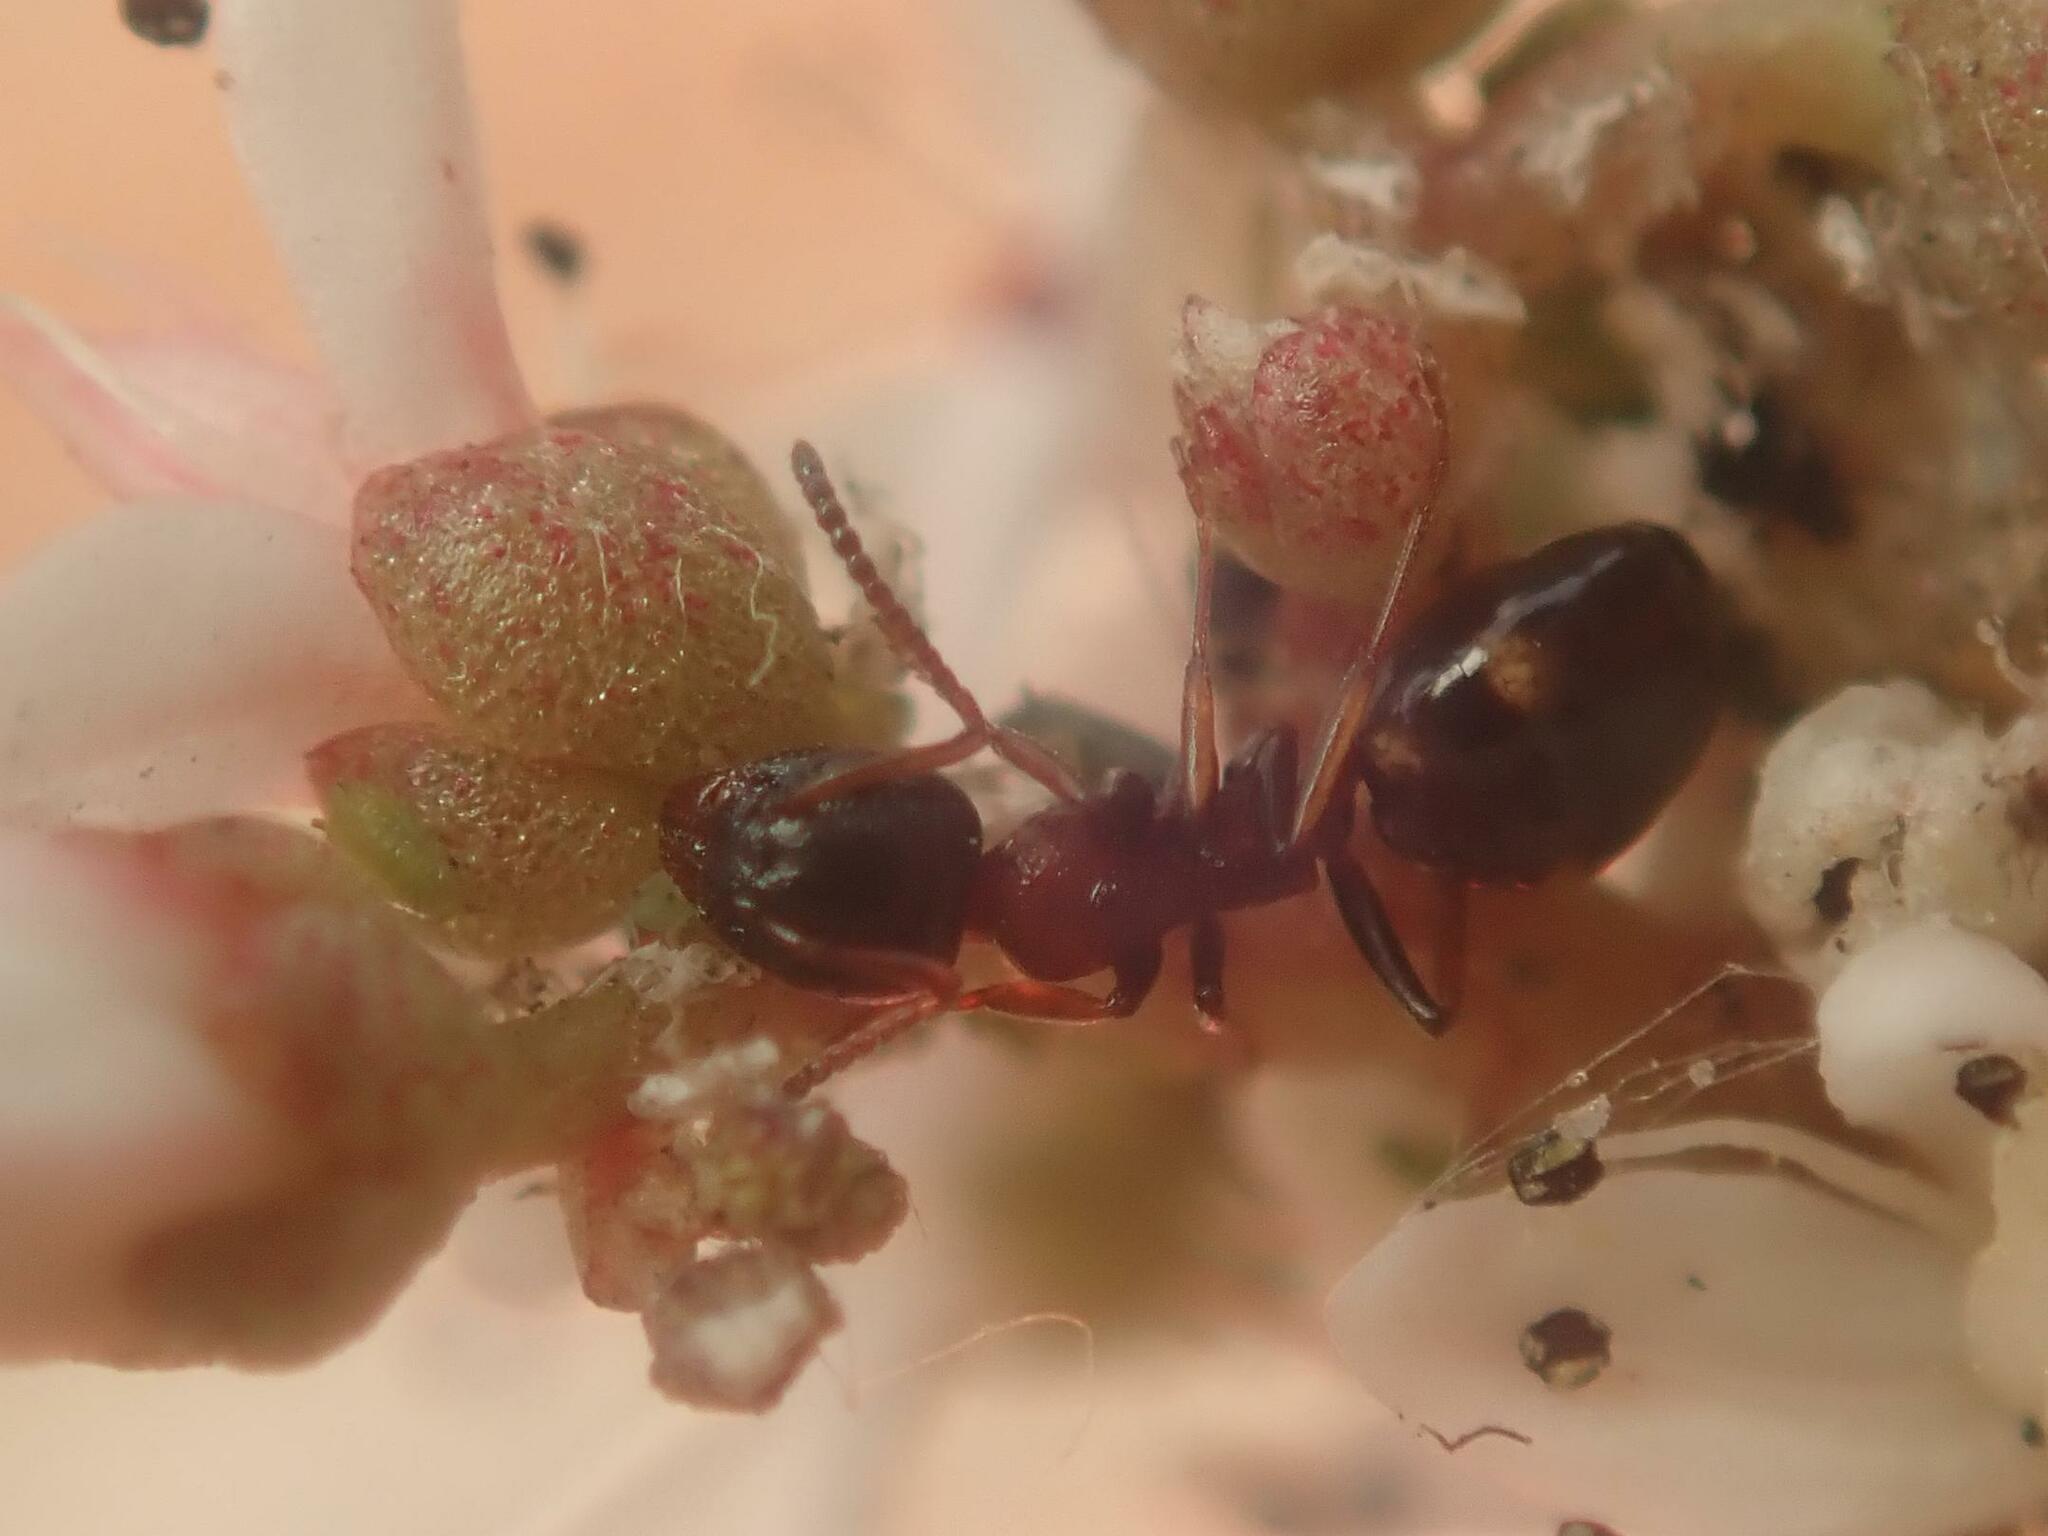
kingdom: Animalia
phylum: Arthropoda
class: Insecta
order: Hymenoptera
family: Formicidae
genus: Dolichoderus
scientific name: Dolichoderus quadripunctatus
